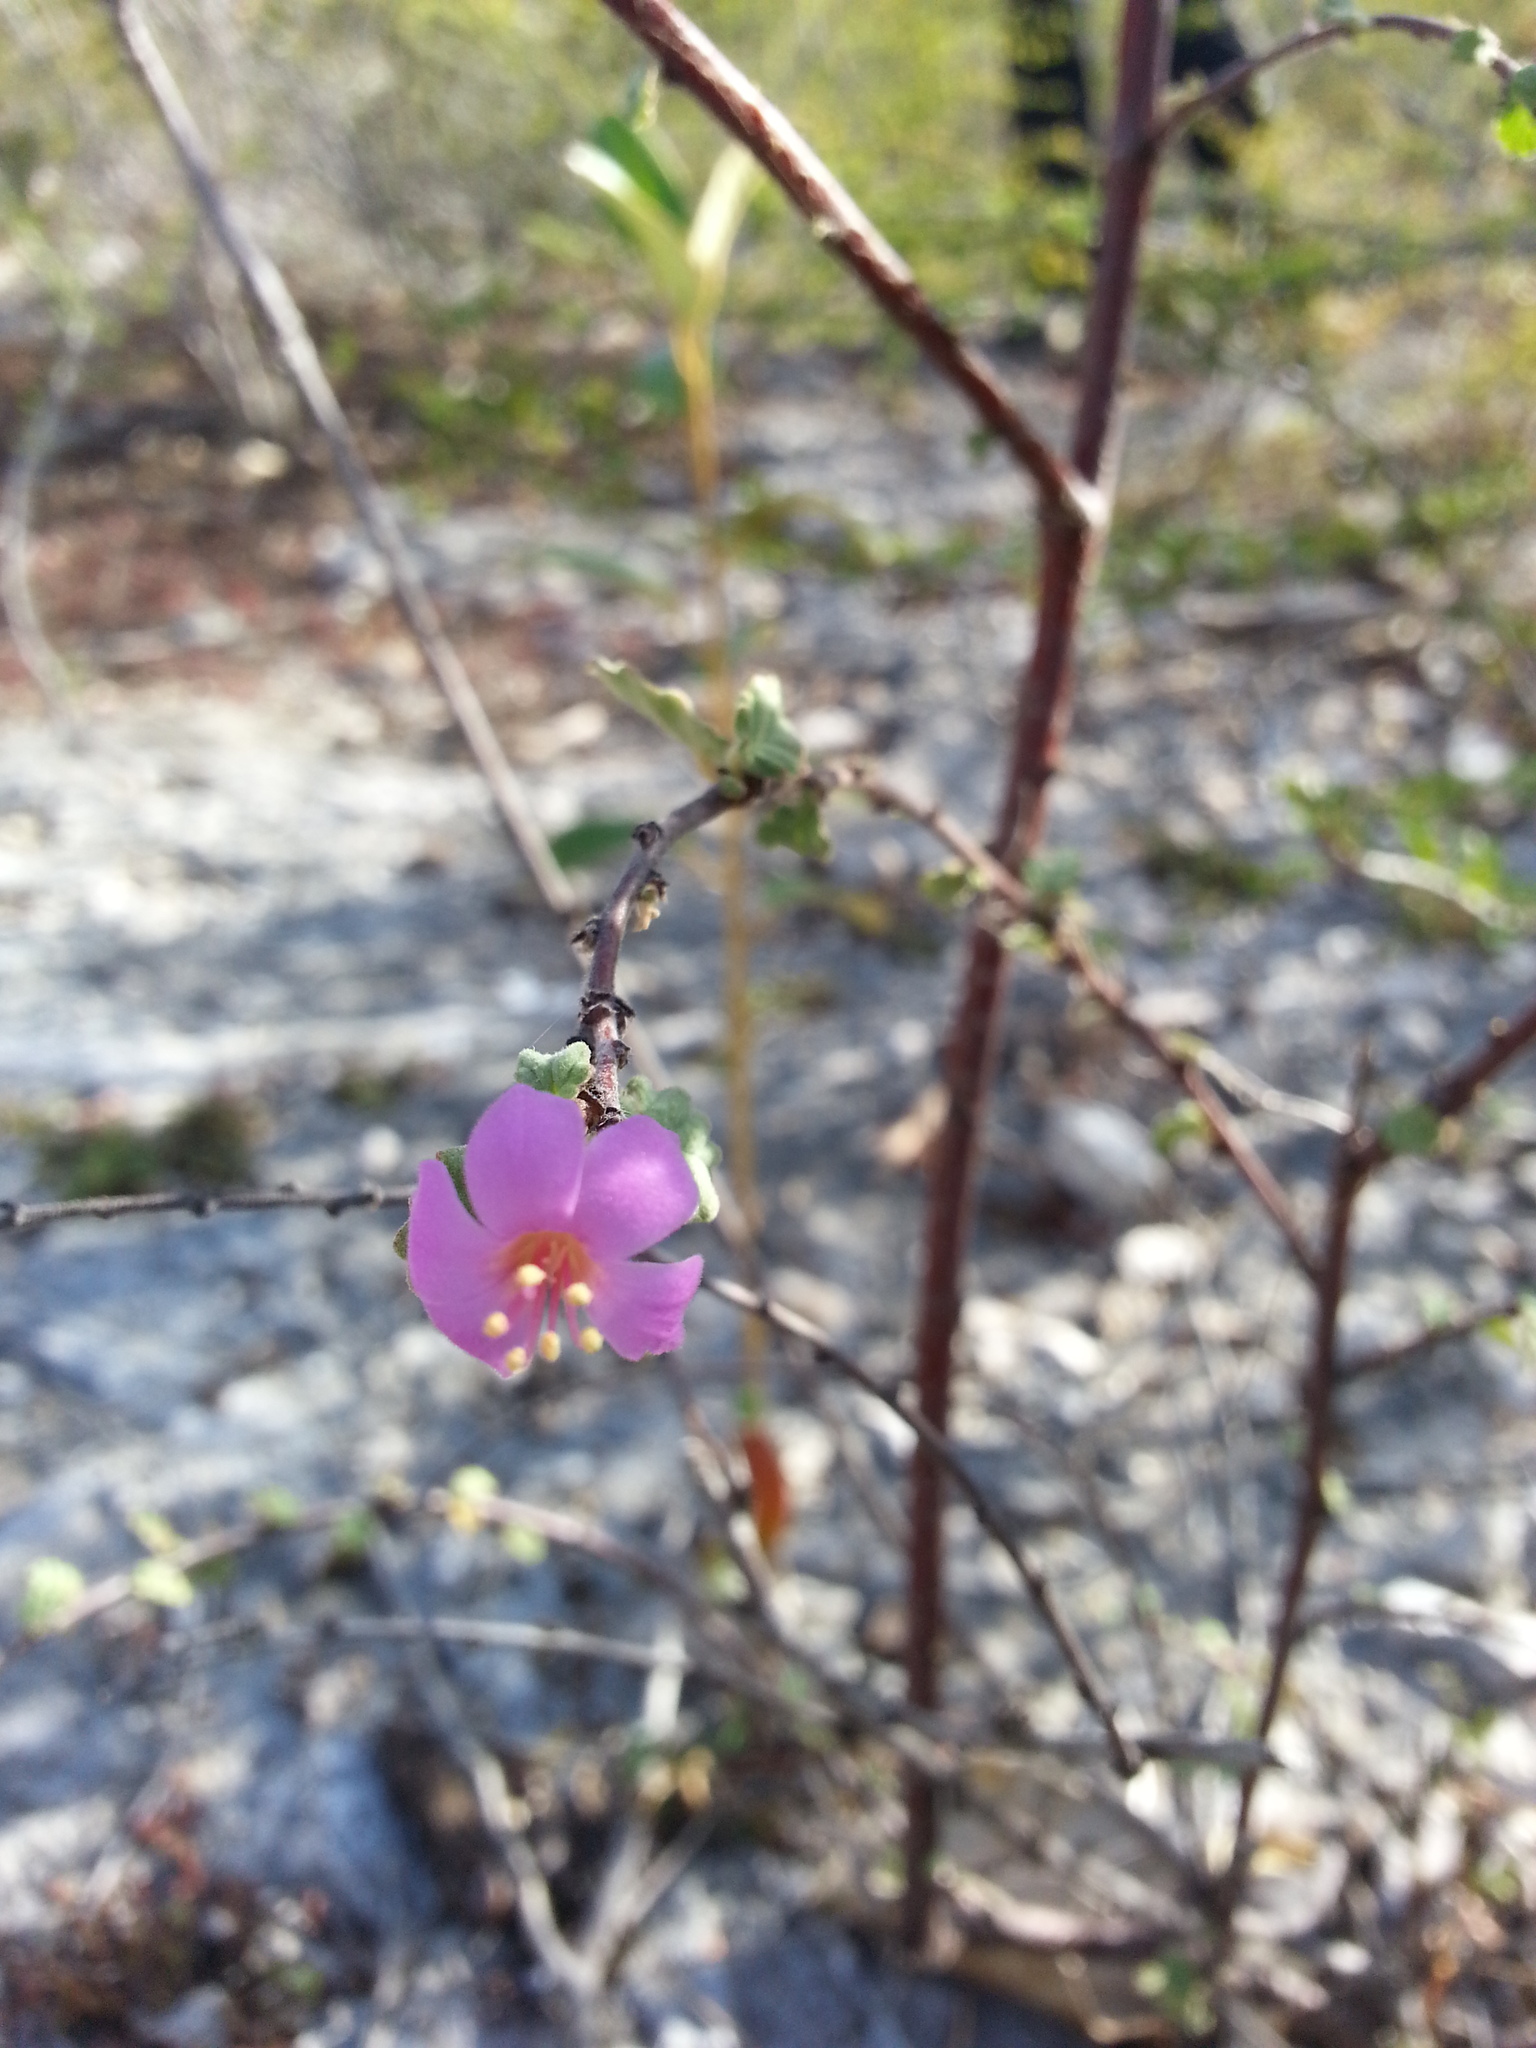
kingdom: Plantae
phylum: Tracheophyta
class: Magnoliopsida
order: Malvales
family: Malvaceae
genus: Melochia
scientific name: Melochia tomentosa
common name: Black torch
